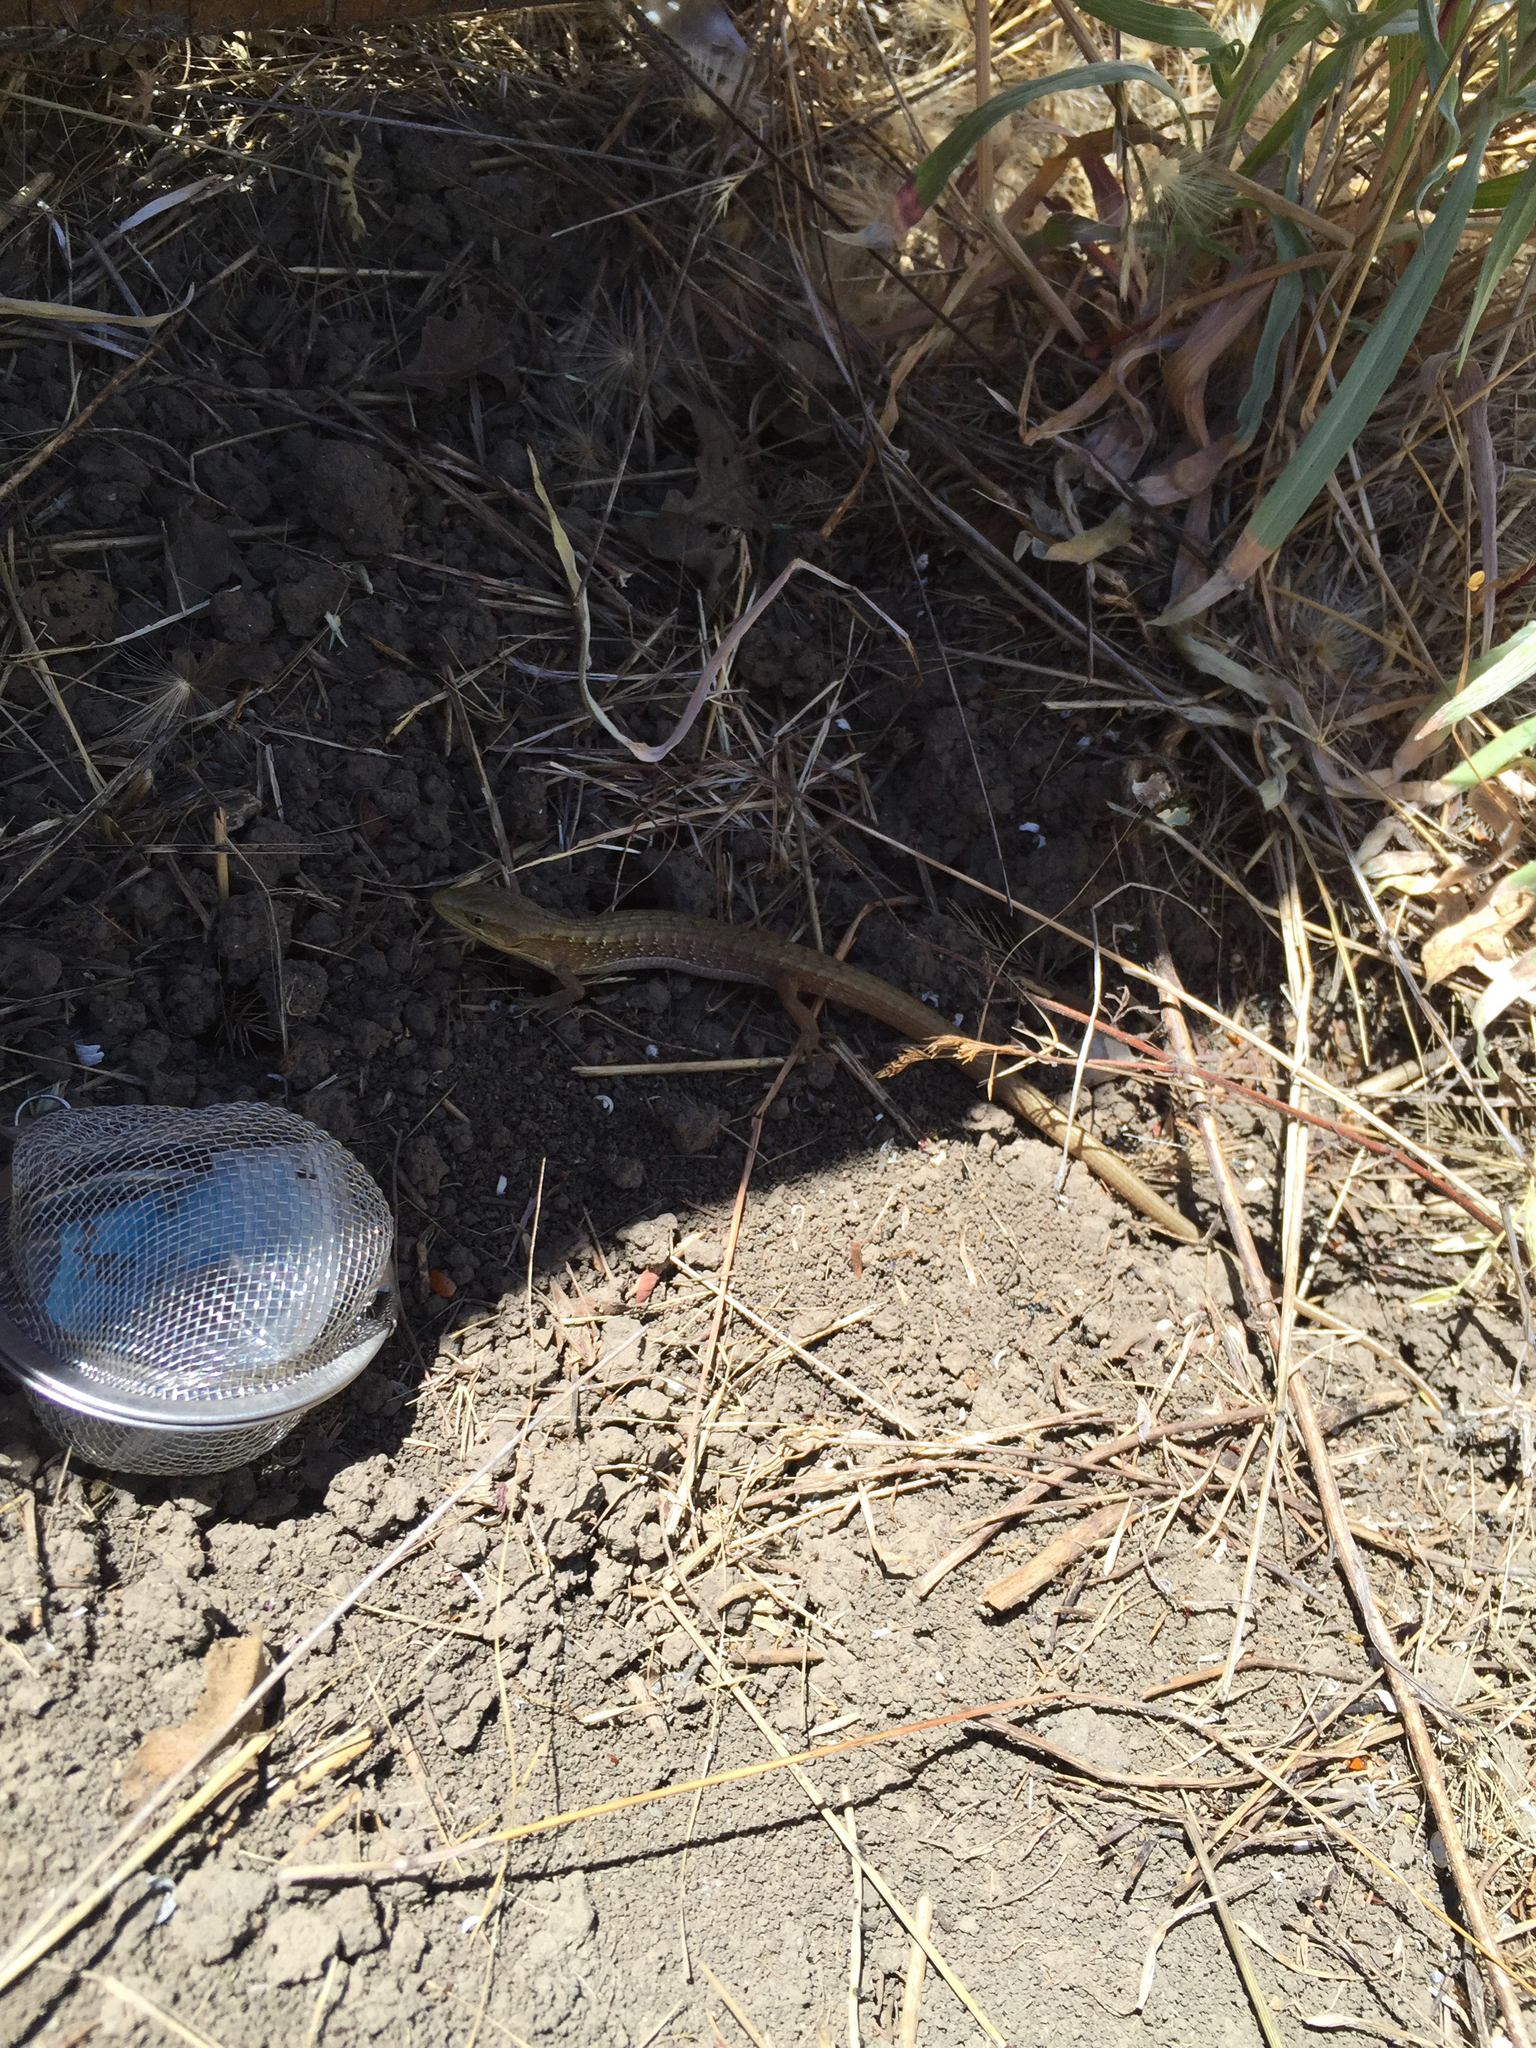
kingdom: Animalia
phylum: Chordata
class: Squamata
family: Anguidae
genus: Elgaria
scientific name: Elgaria multicarinata
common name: Southern alligator lizard
